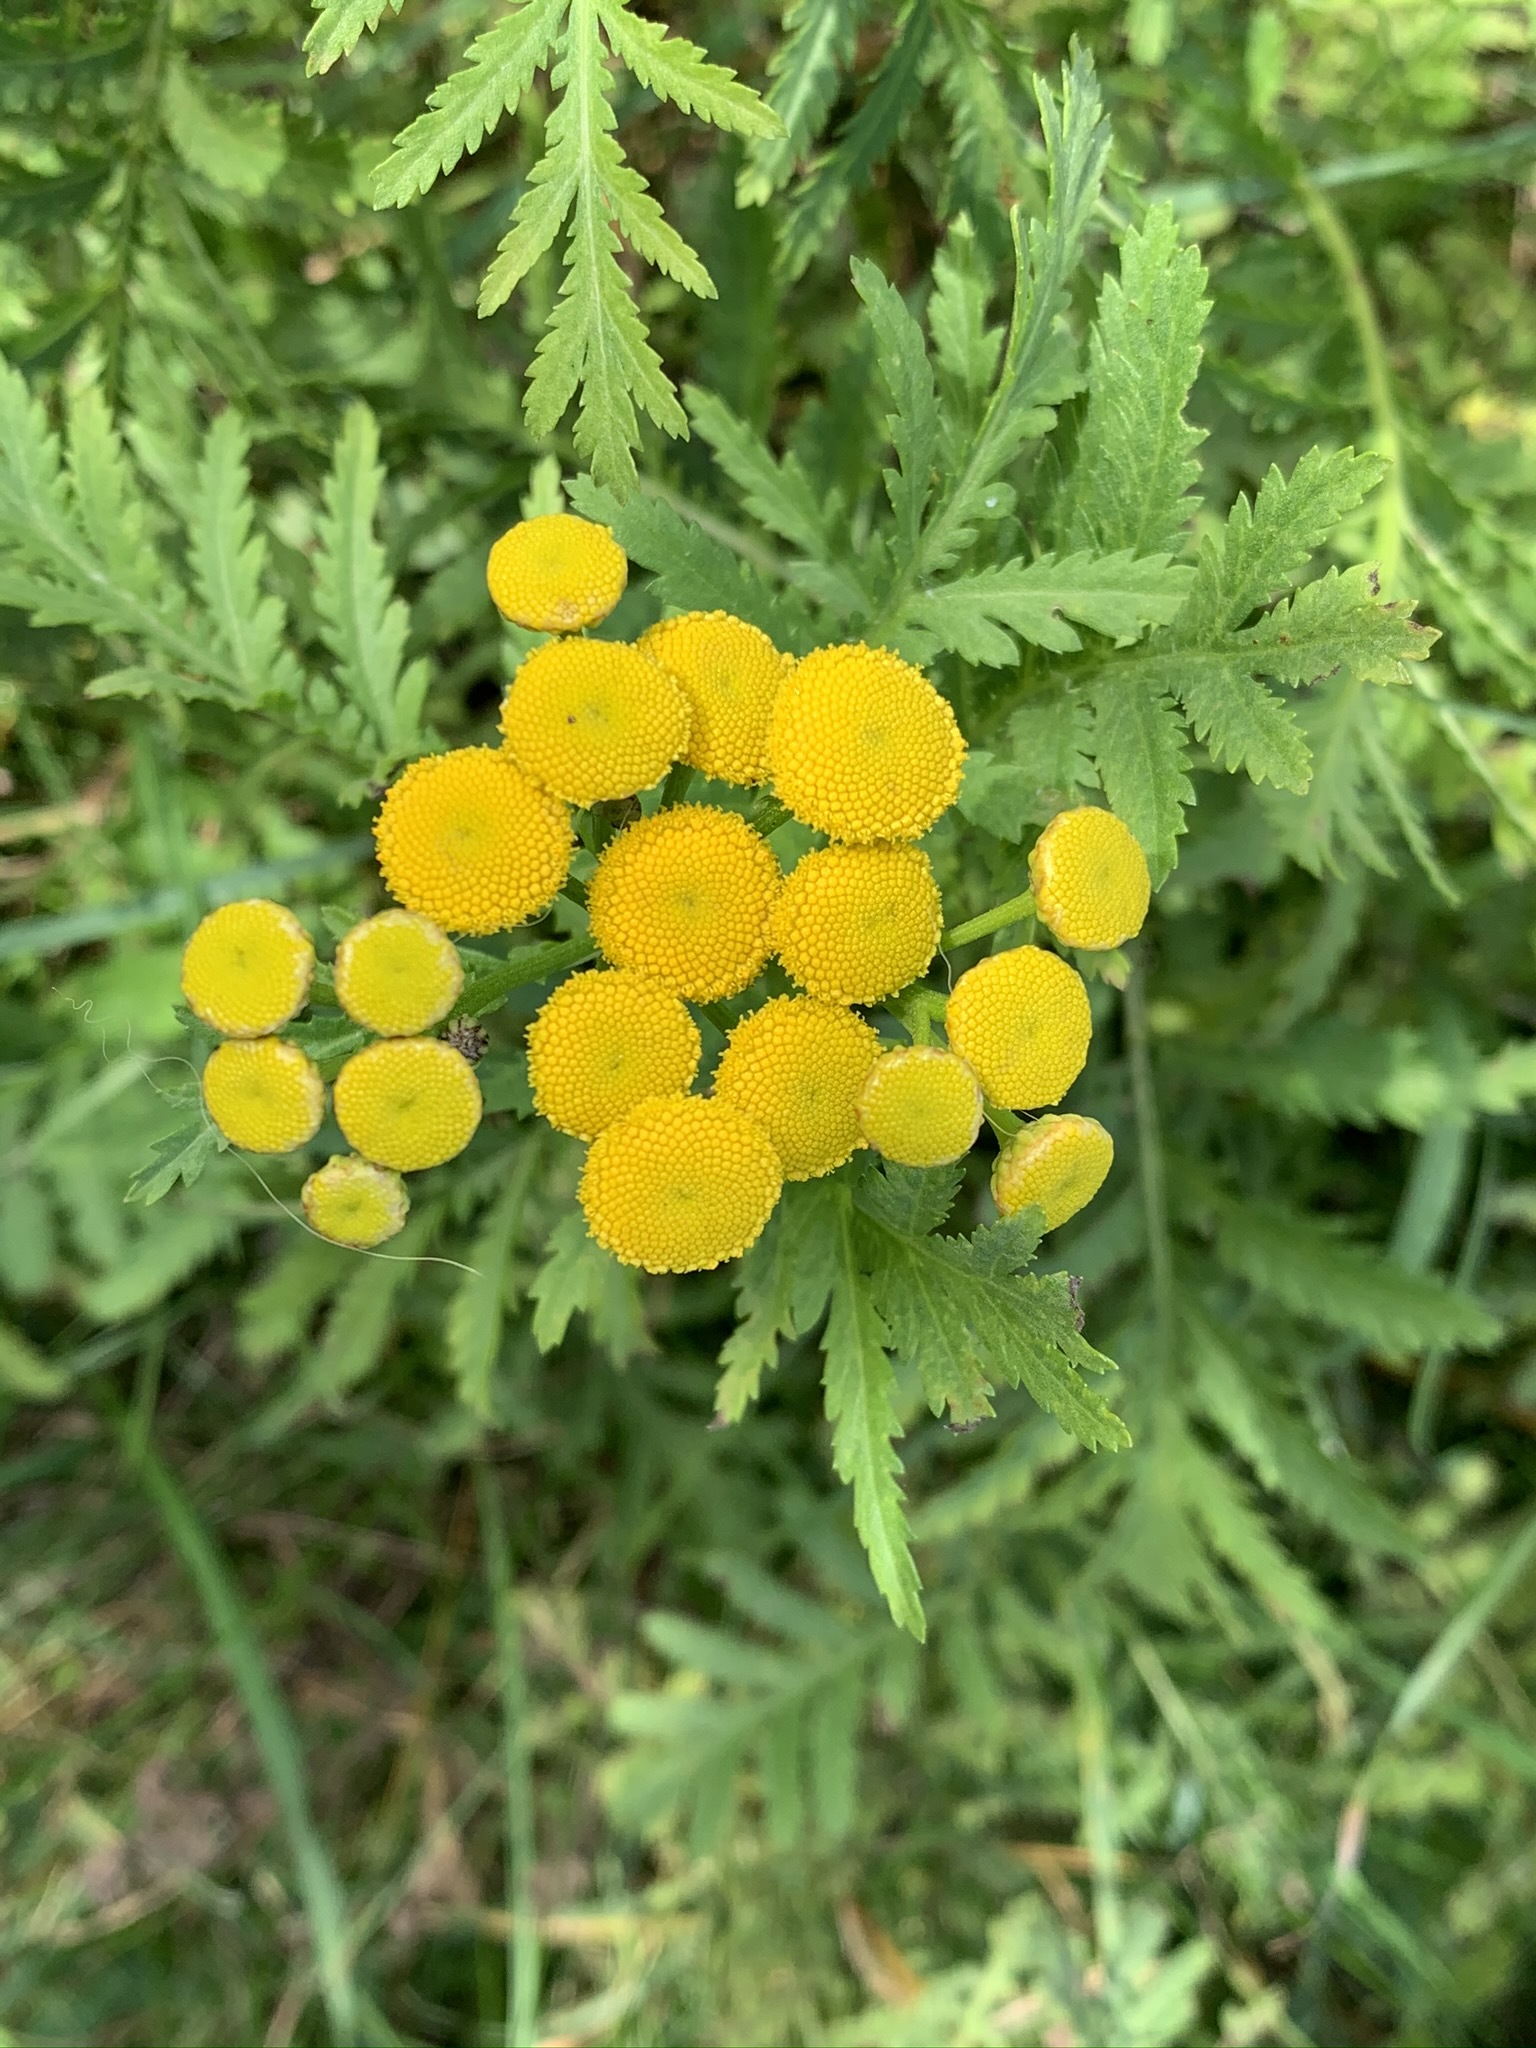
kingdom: Plantae
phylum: Tracheophyta
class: Magnoliopsida
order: Asterales
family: Asteraceae
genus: Tanacetum
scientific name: Tanacetum vulgare
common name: Common tansy
